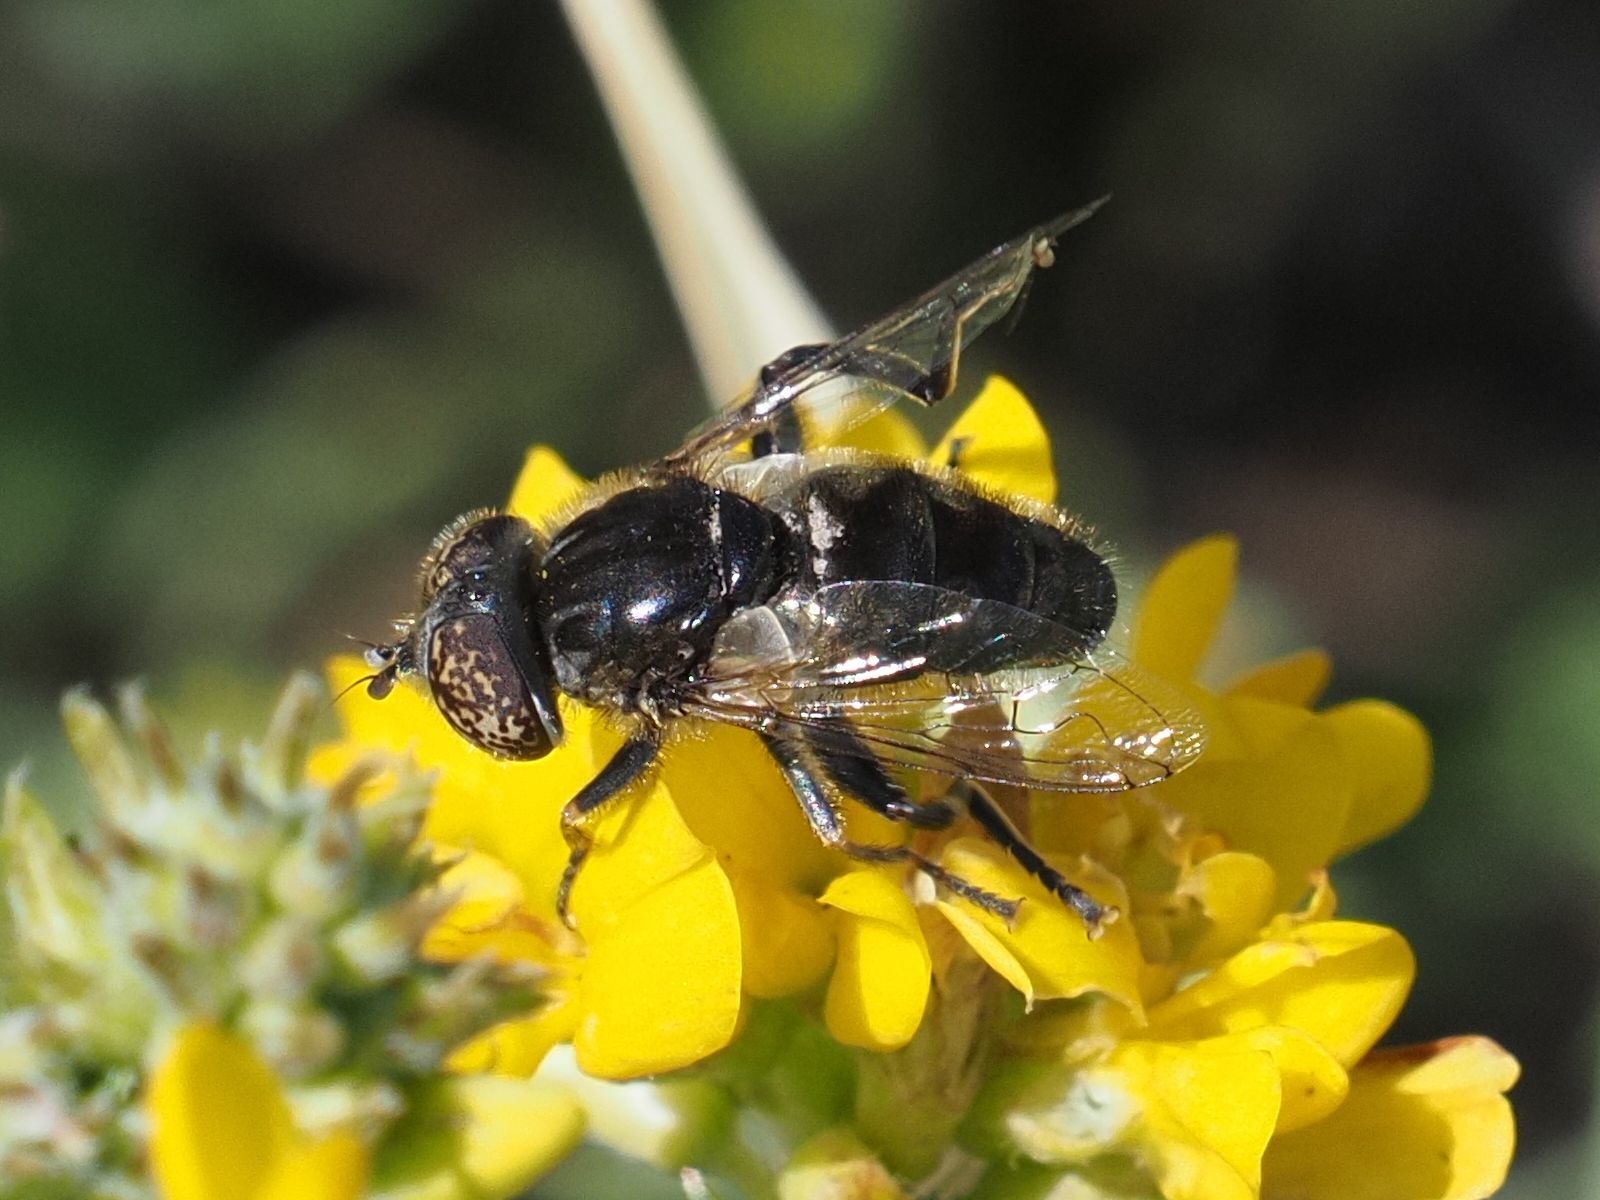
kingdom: Animalia
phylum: Arthropoda
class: Insecta
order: Diptera
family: Syrphidae
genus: Eristalinus
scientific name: Eristalinus sepulchralis
